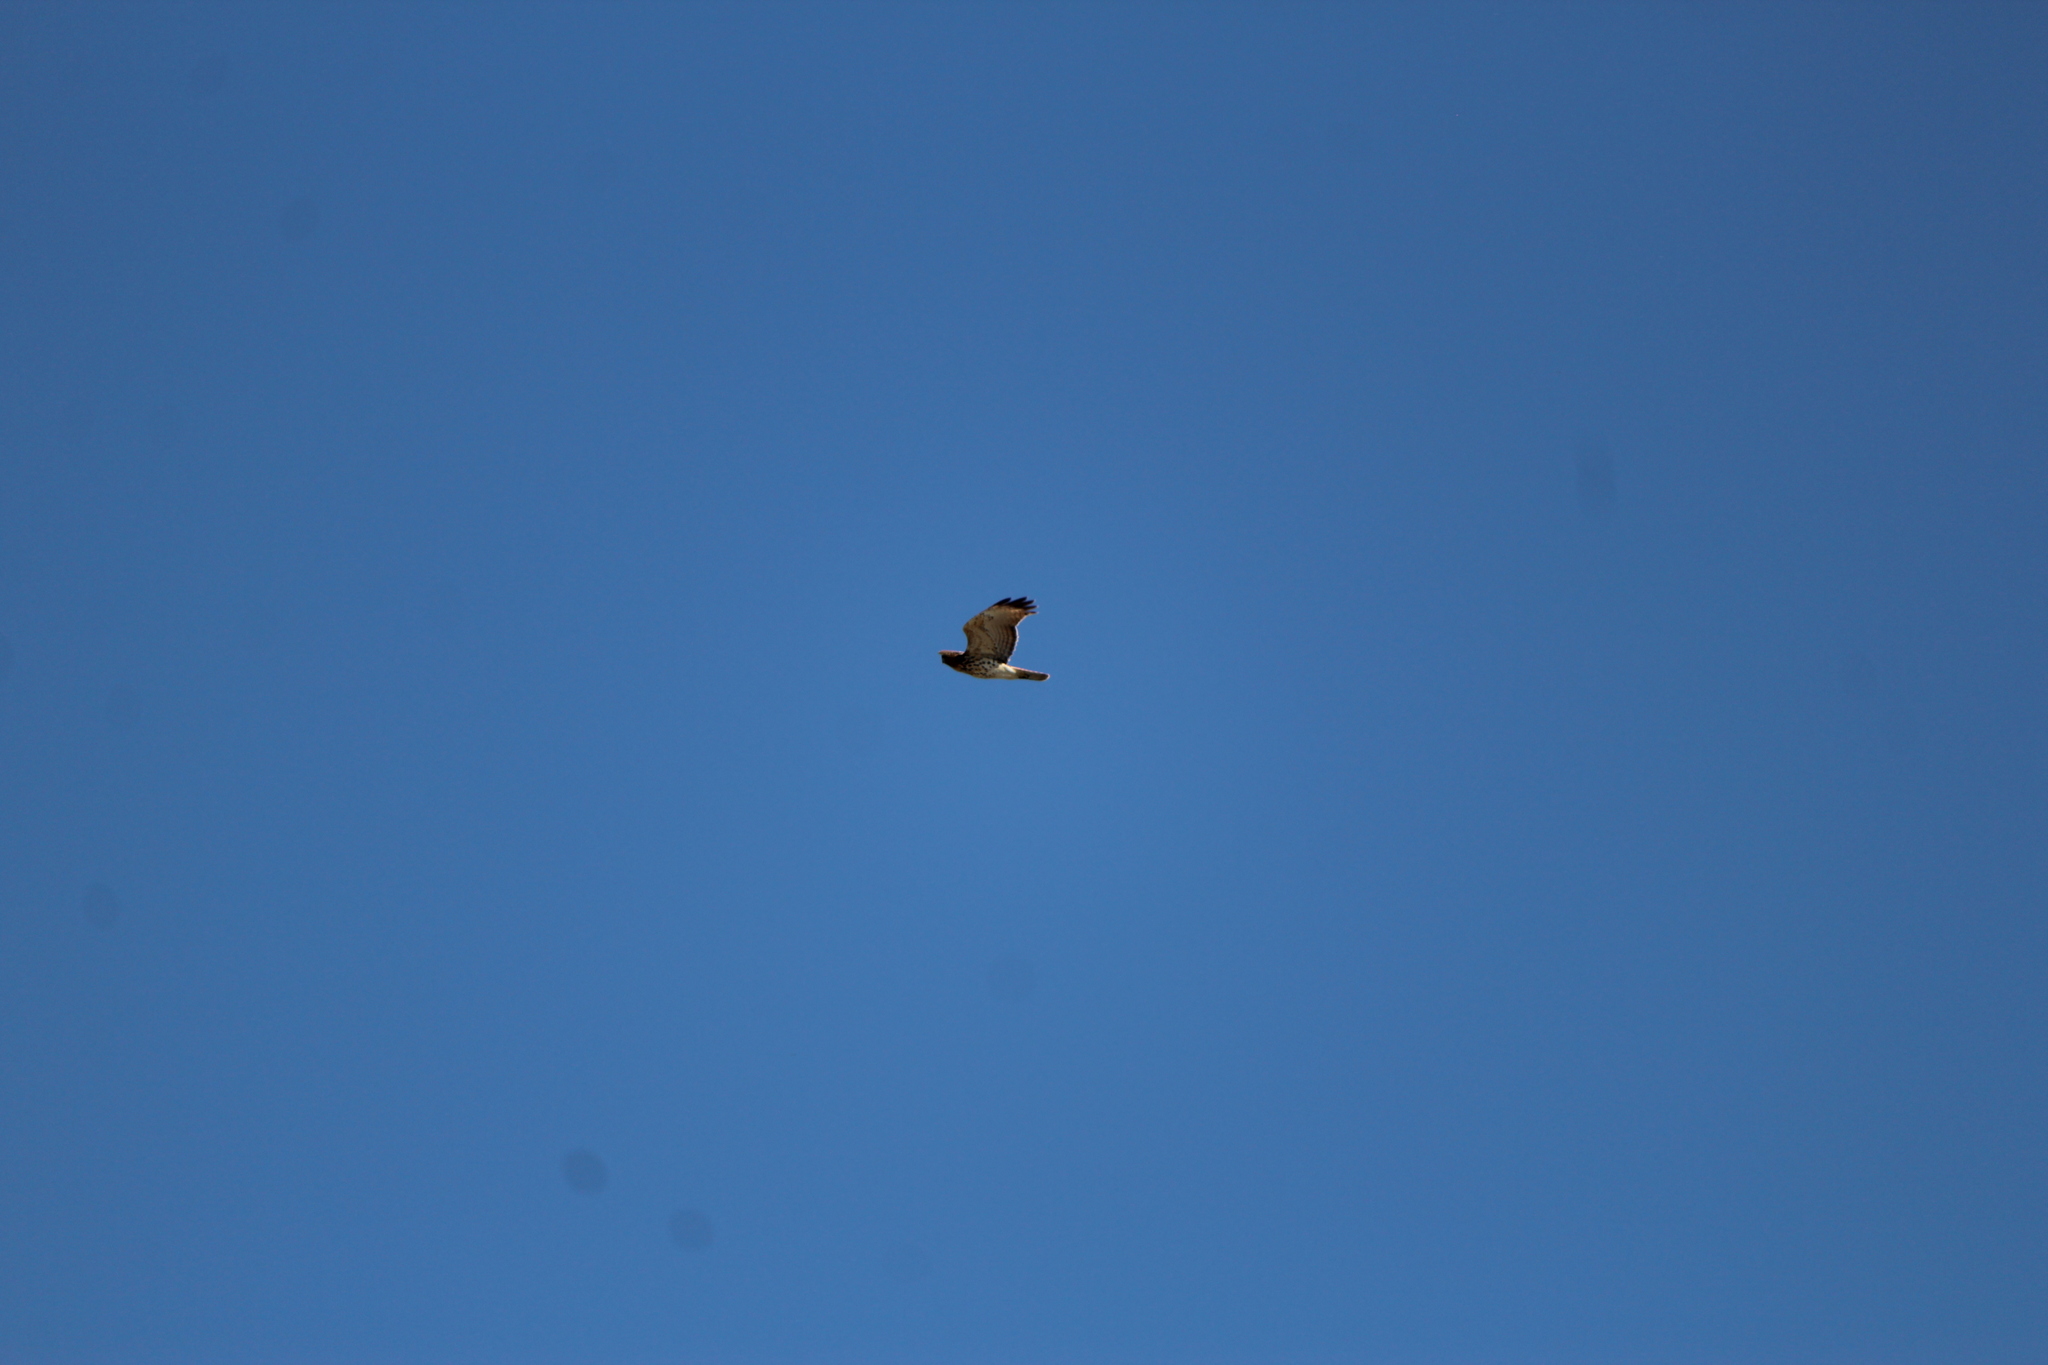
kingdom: Animalia
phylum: Chordata
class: Aves
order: Accipitriformes
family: Accipitridae
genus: Buteo
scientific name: Buteo lineatus
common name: Red-shouldered hawk
